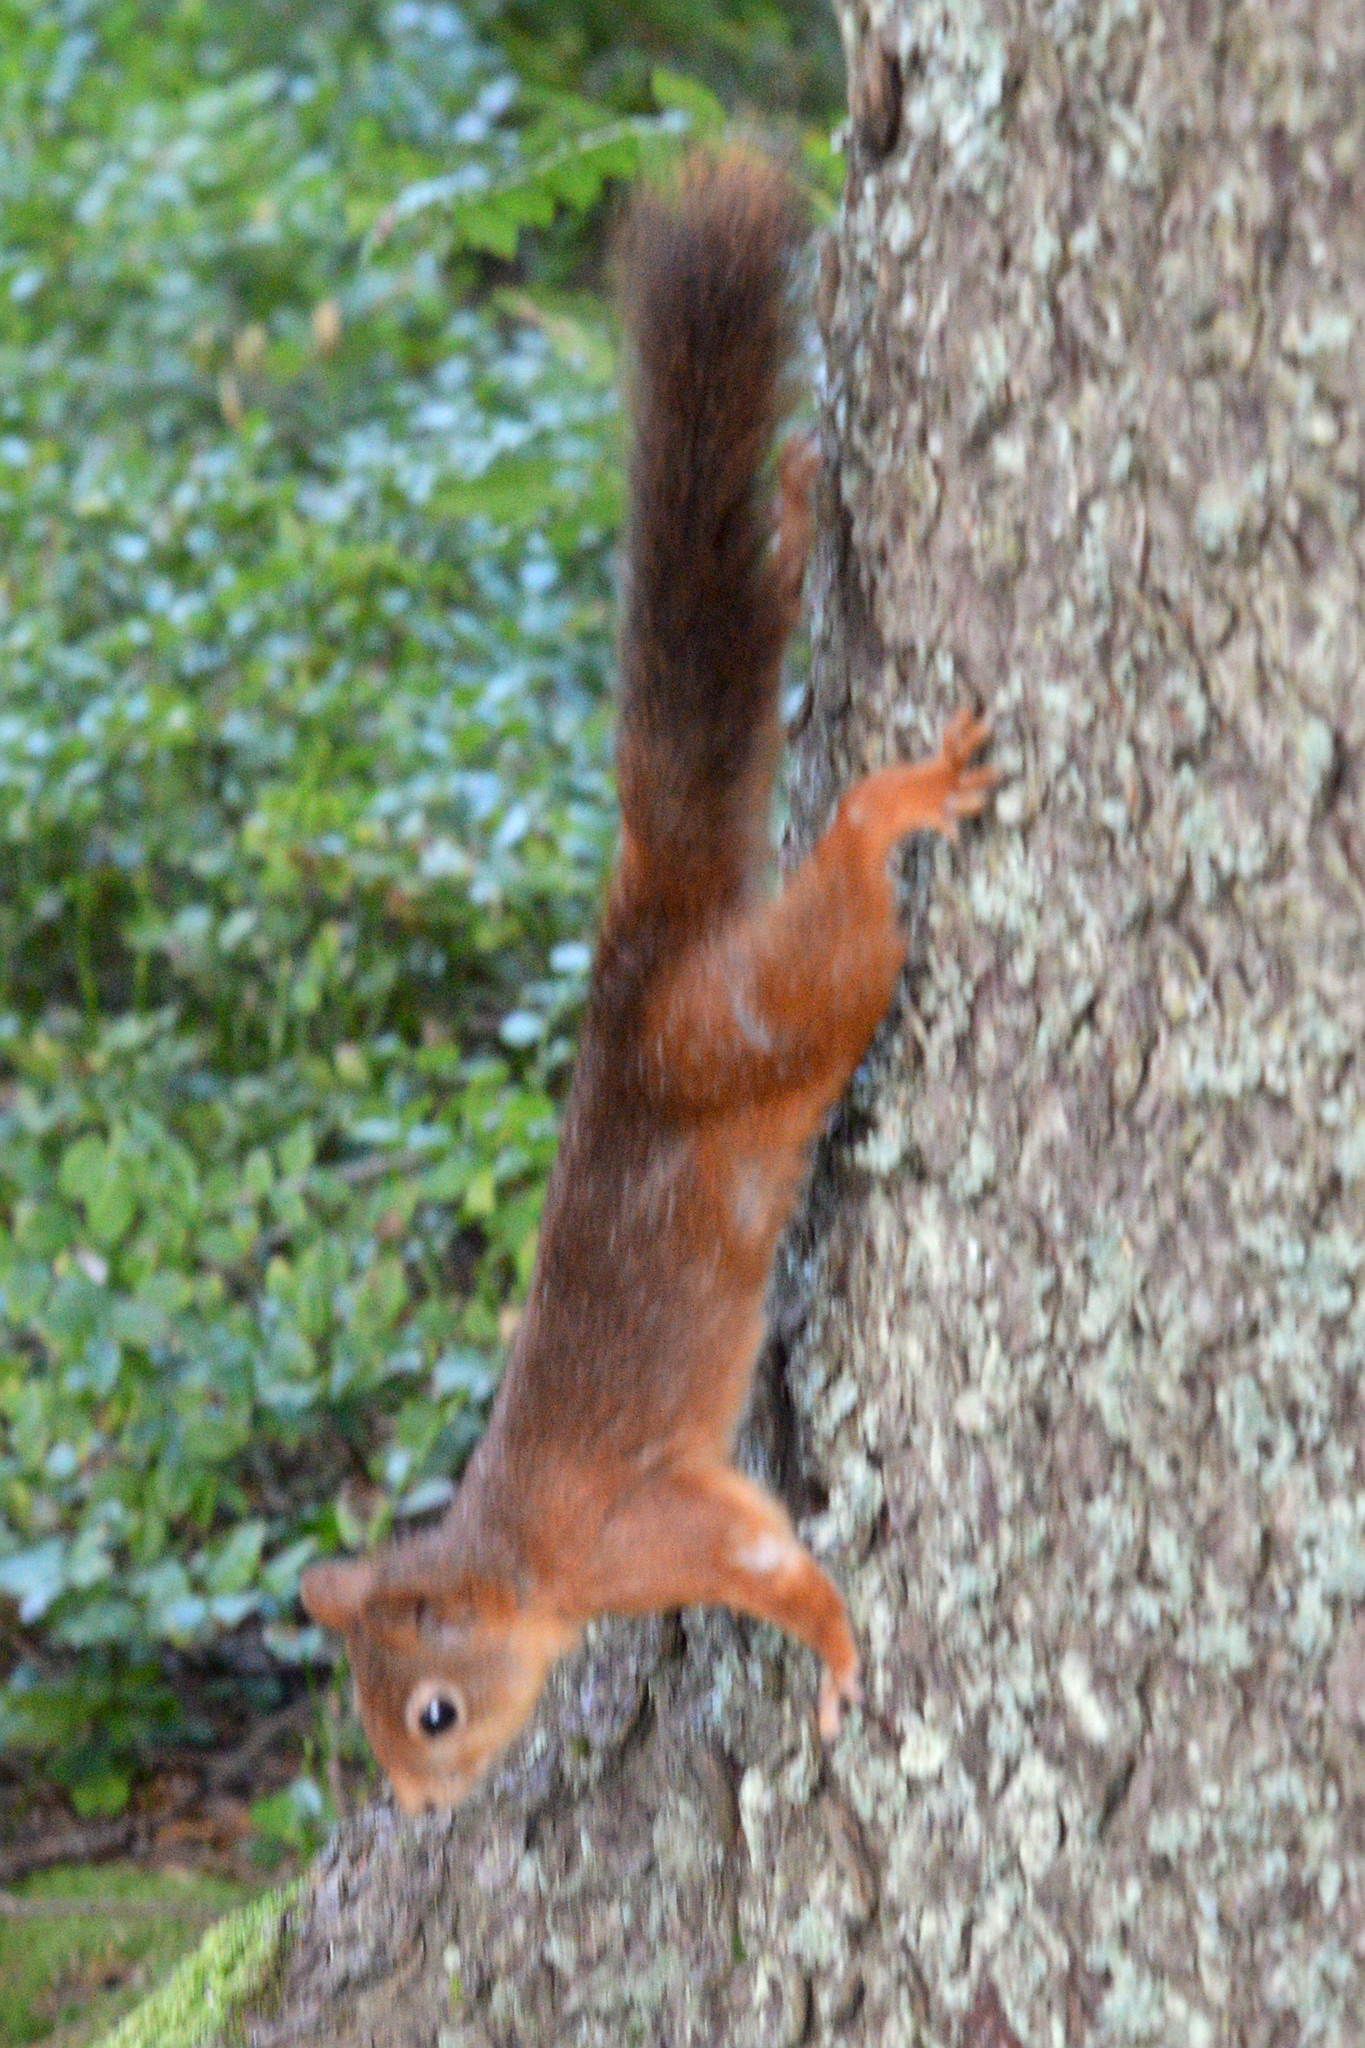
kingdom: Animalia
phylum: Chordata
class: Mammalia
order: Rodentia
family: Sciuridae
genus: Sciurus
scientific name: Sciurus vulgaris
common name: Eurasian red squirrel
